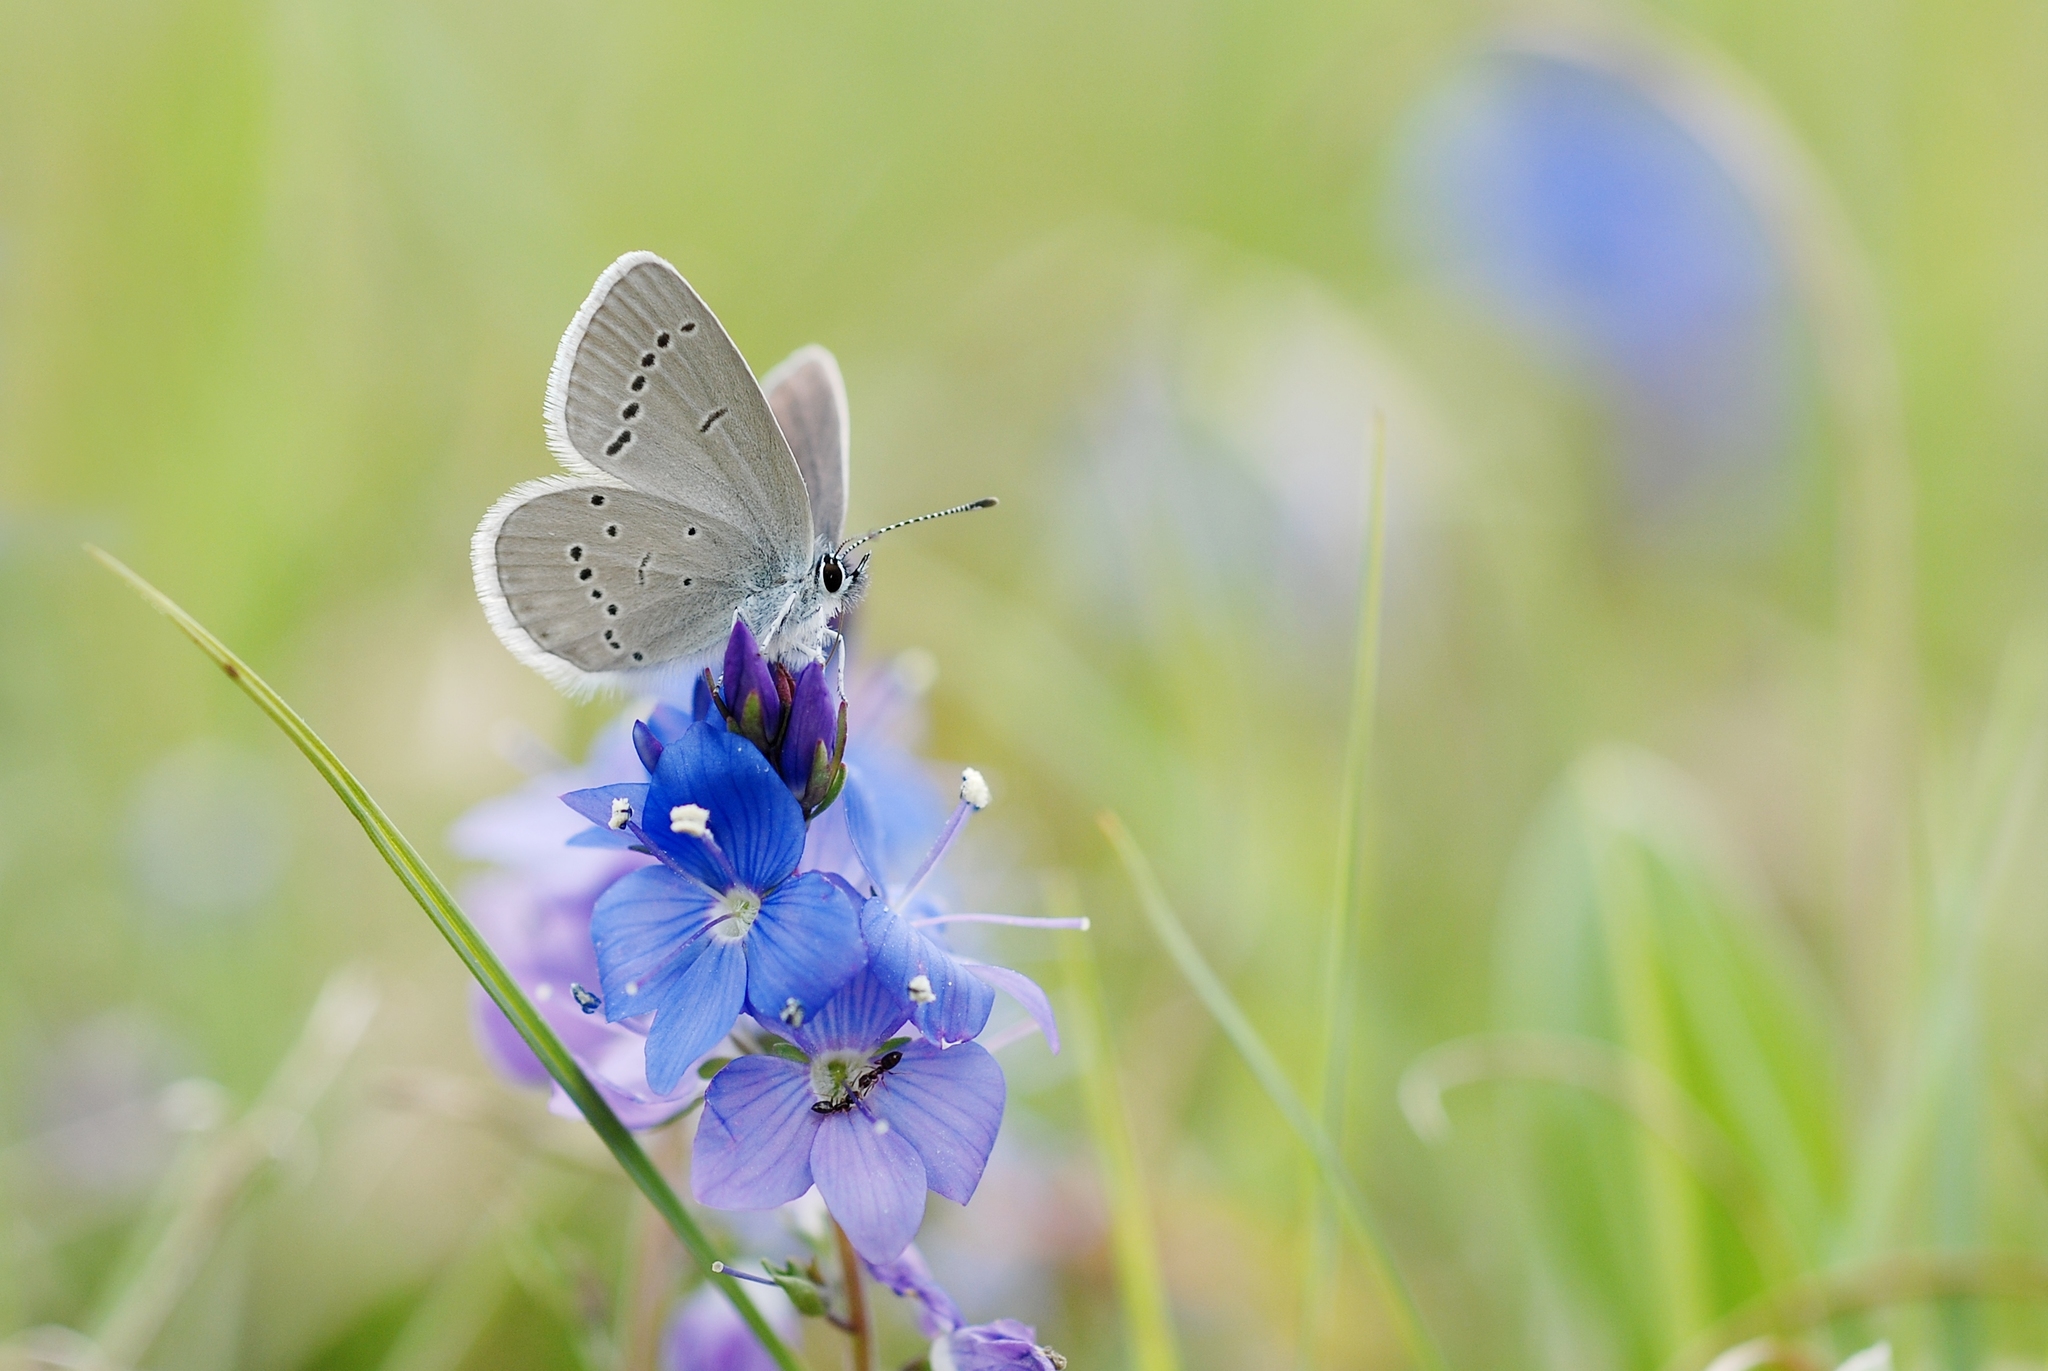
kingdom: Animalia
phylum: Arthropoda
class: Insecta
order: Lepidoptera
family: Lycaenidae
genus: Cupido
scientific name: Cupido minimus
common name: Small blue
